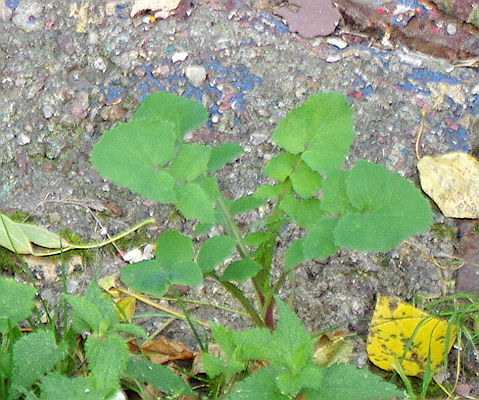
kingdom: Plantae
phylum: Tracheophyta
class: Magnoliopsida
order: Asterales
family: Asteraceae
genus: Sonchus
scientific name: Sonchus oleraceus
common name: Common sowthistle
